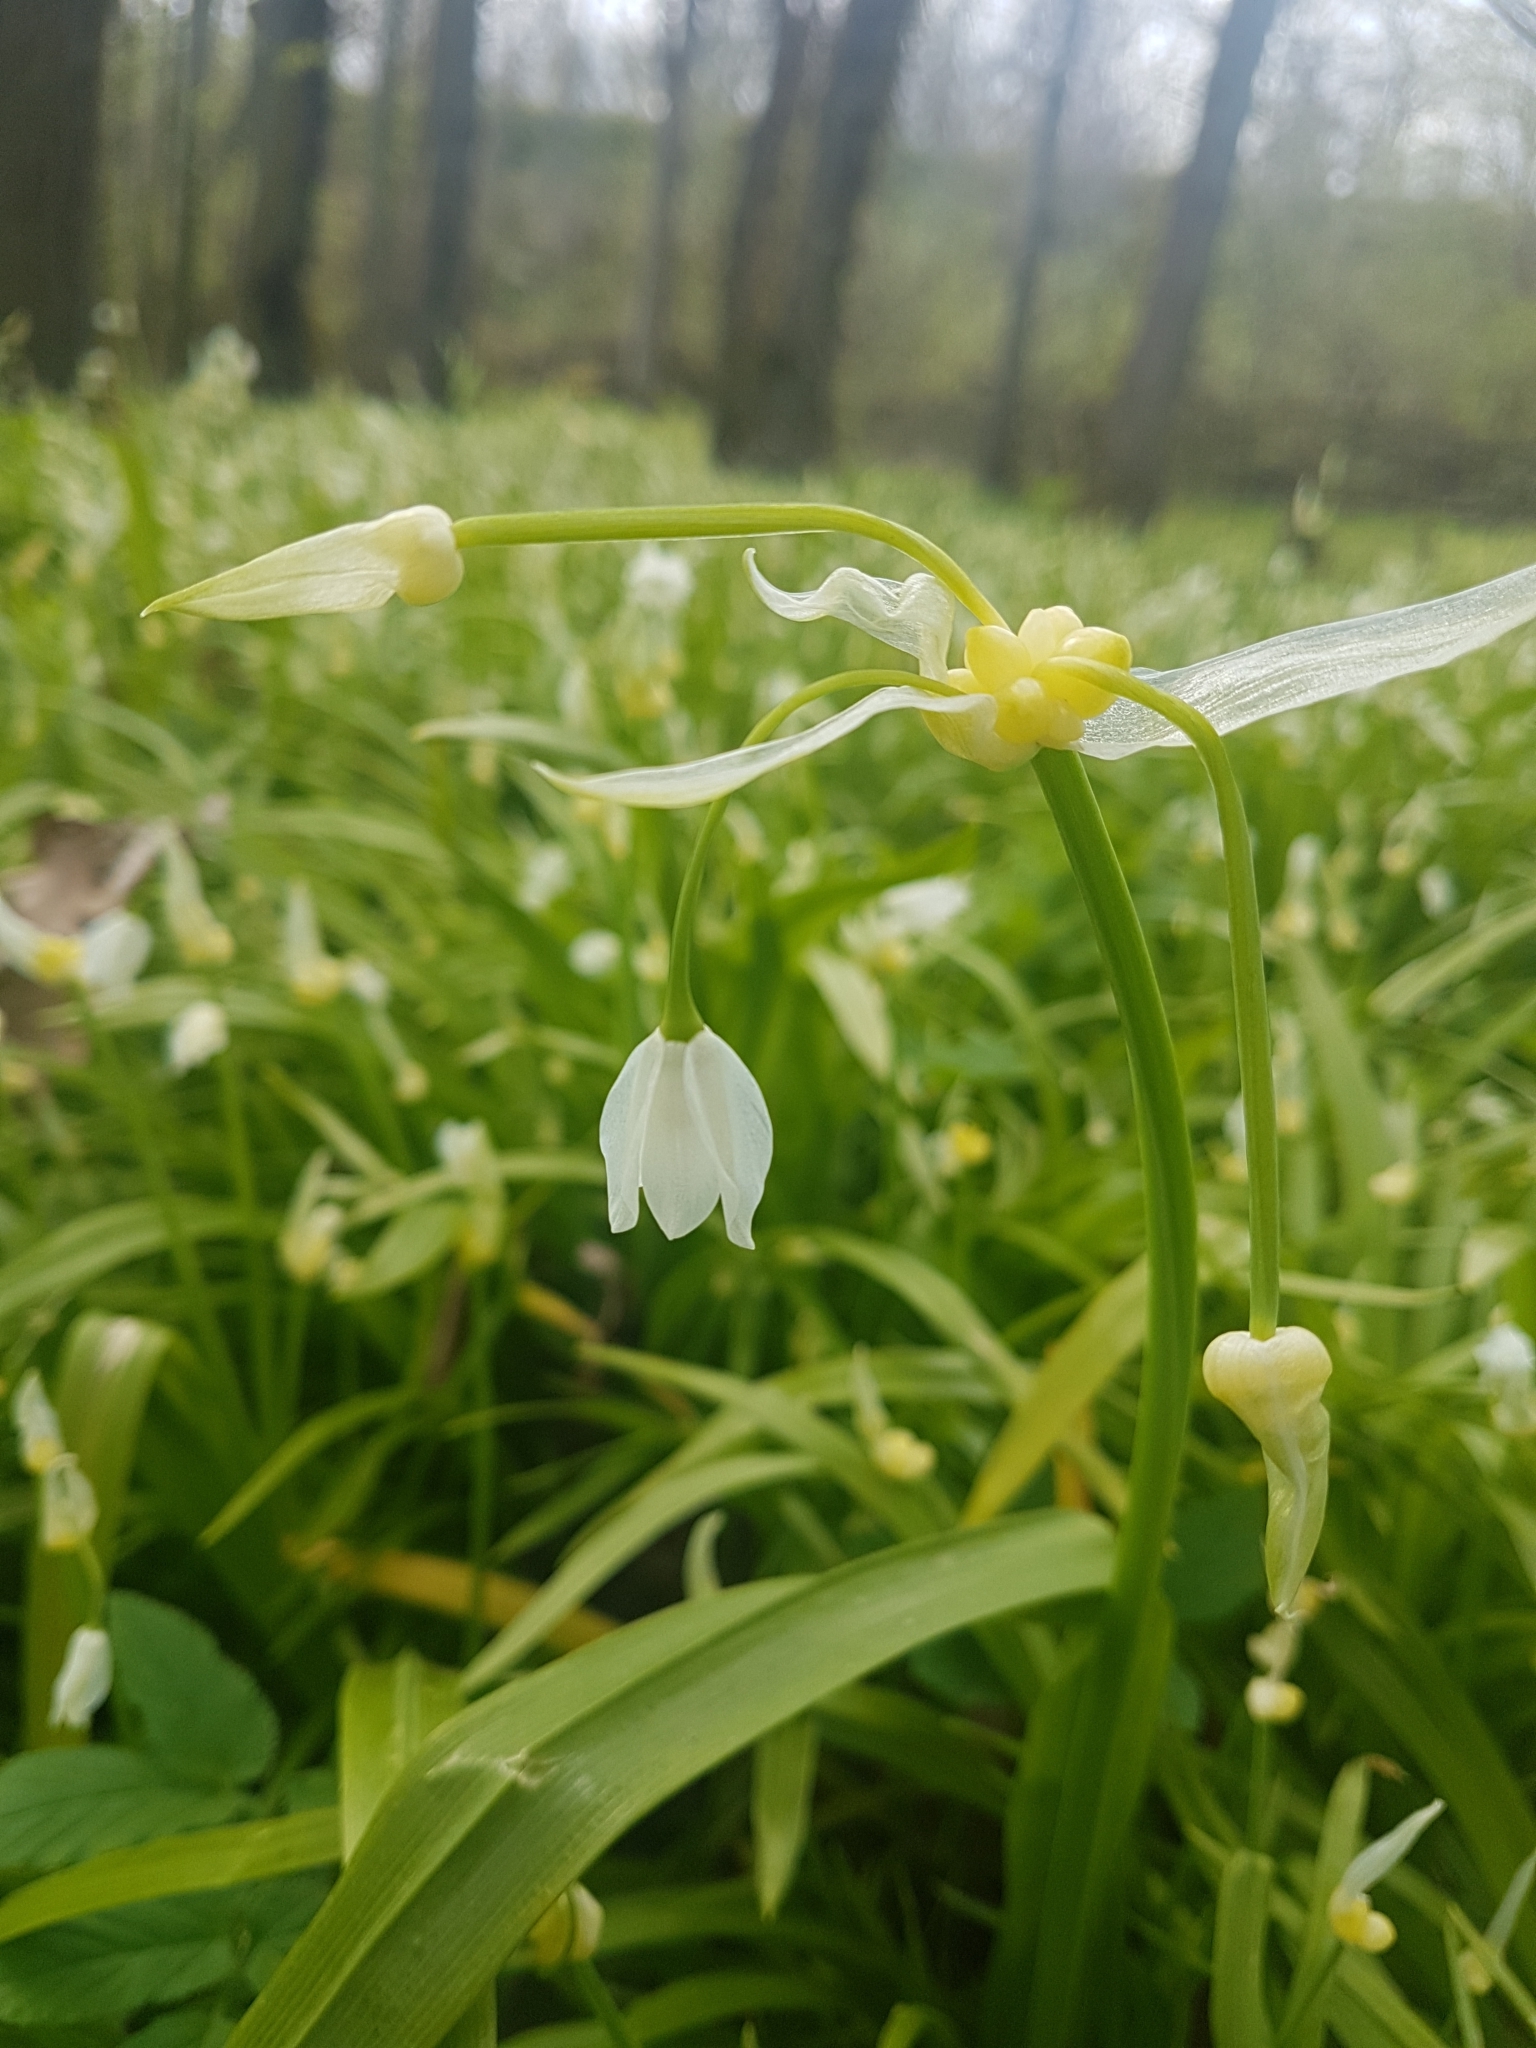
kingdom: Plantae
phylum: Tracheophyta
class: Liliopsida
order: Asparagales
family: Amaryllidaceae
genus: Allium
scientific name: Allium paradoxum
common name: Few-flowered garlic
